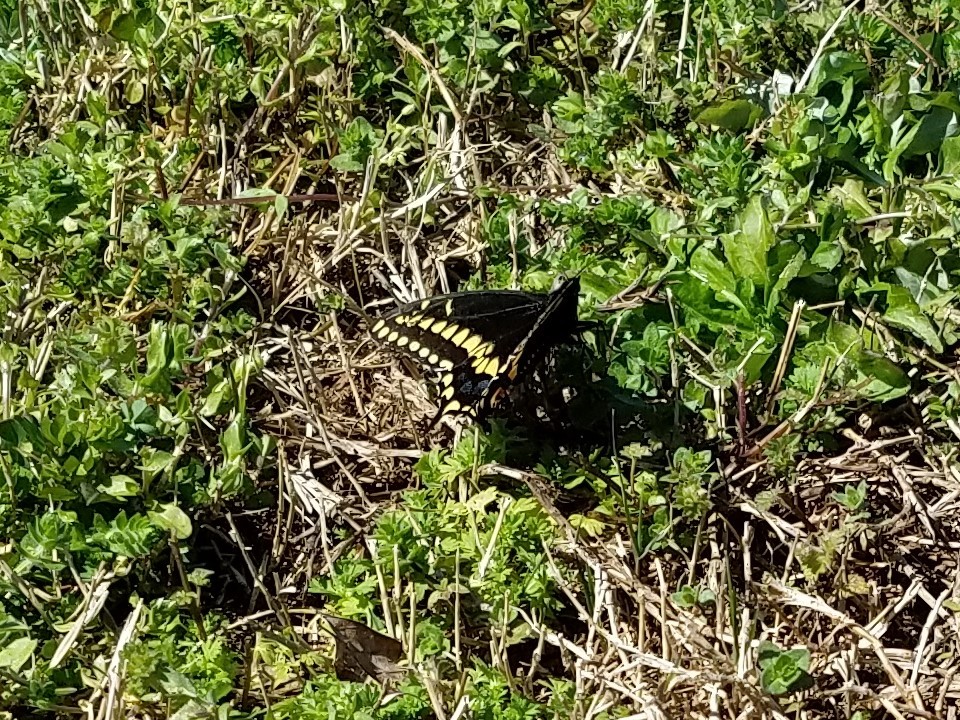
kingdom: Animalia
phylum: Arthropoda
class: Insecta
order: Lepidoptera
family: Papilionidae
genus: Papilio
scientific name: Papilio polyxenes
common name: Black swallowtail
